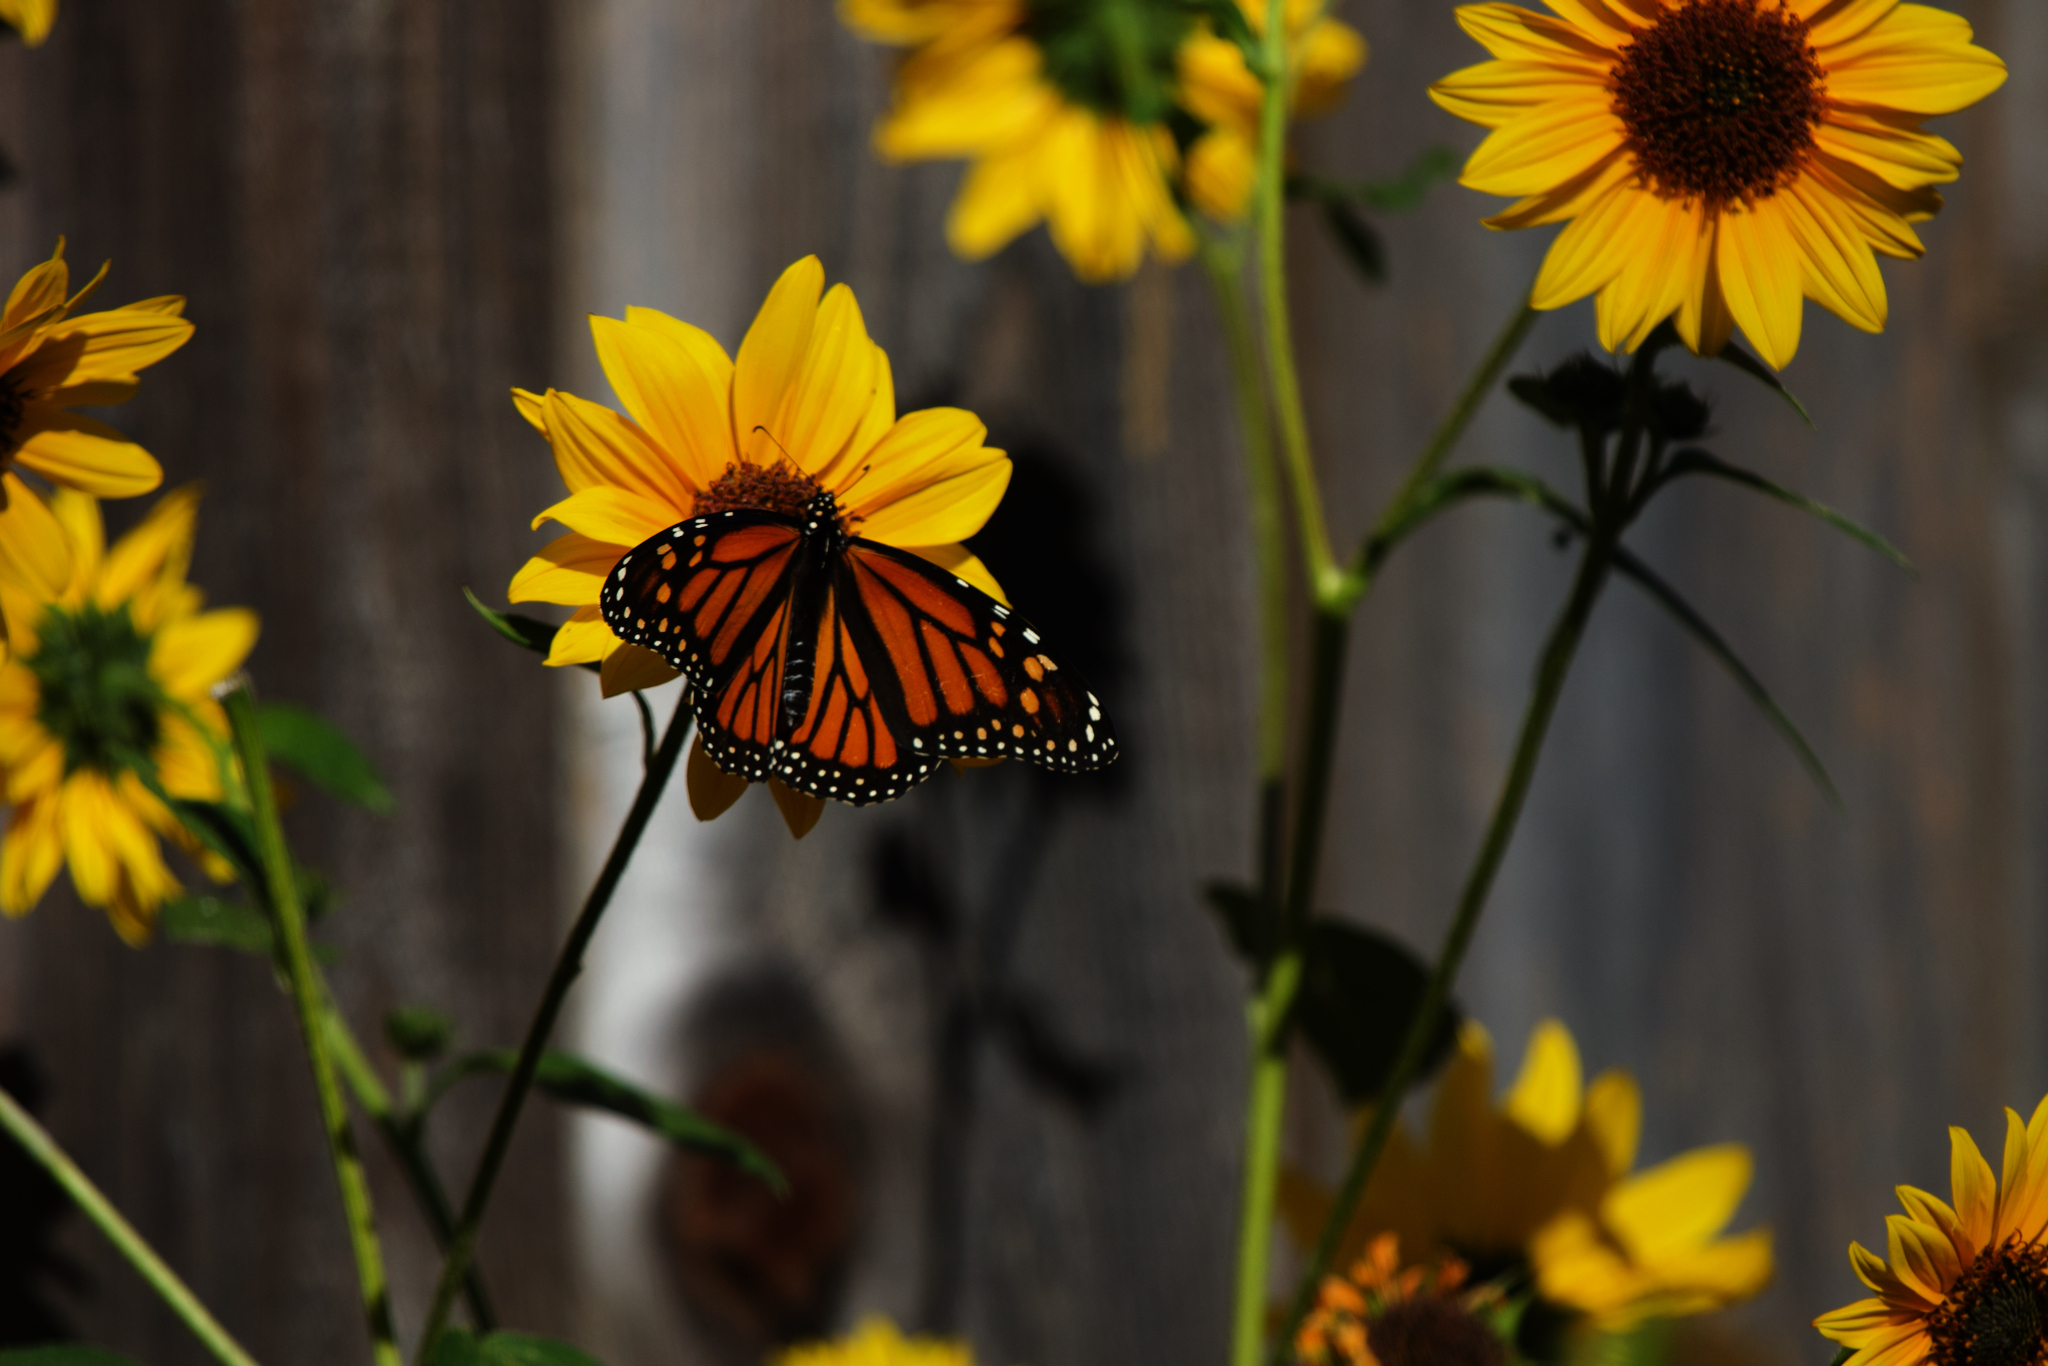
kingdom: Animalia
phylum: Arthropoda
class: Insecta
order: Lepidoptera
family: Nymphalidae
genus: Danaus
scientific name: Danaus plexippus
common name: Monarch
